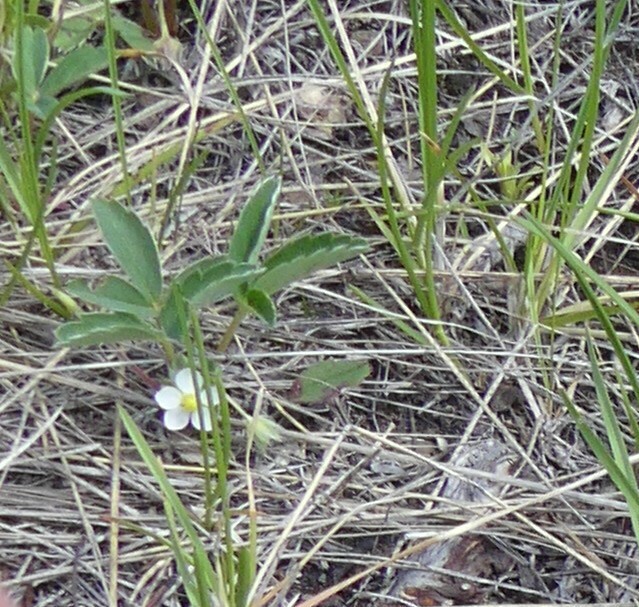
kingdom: Plantae
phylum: Tracheophyta
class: Magnoliopsida
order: Rosales
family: Rosaceae
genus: Fragaria
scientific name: Fragaria virginiana
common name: Thickleaved wild strawberry
